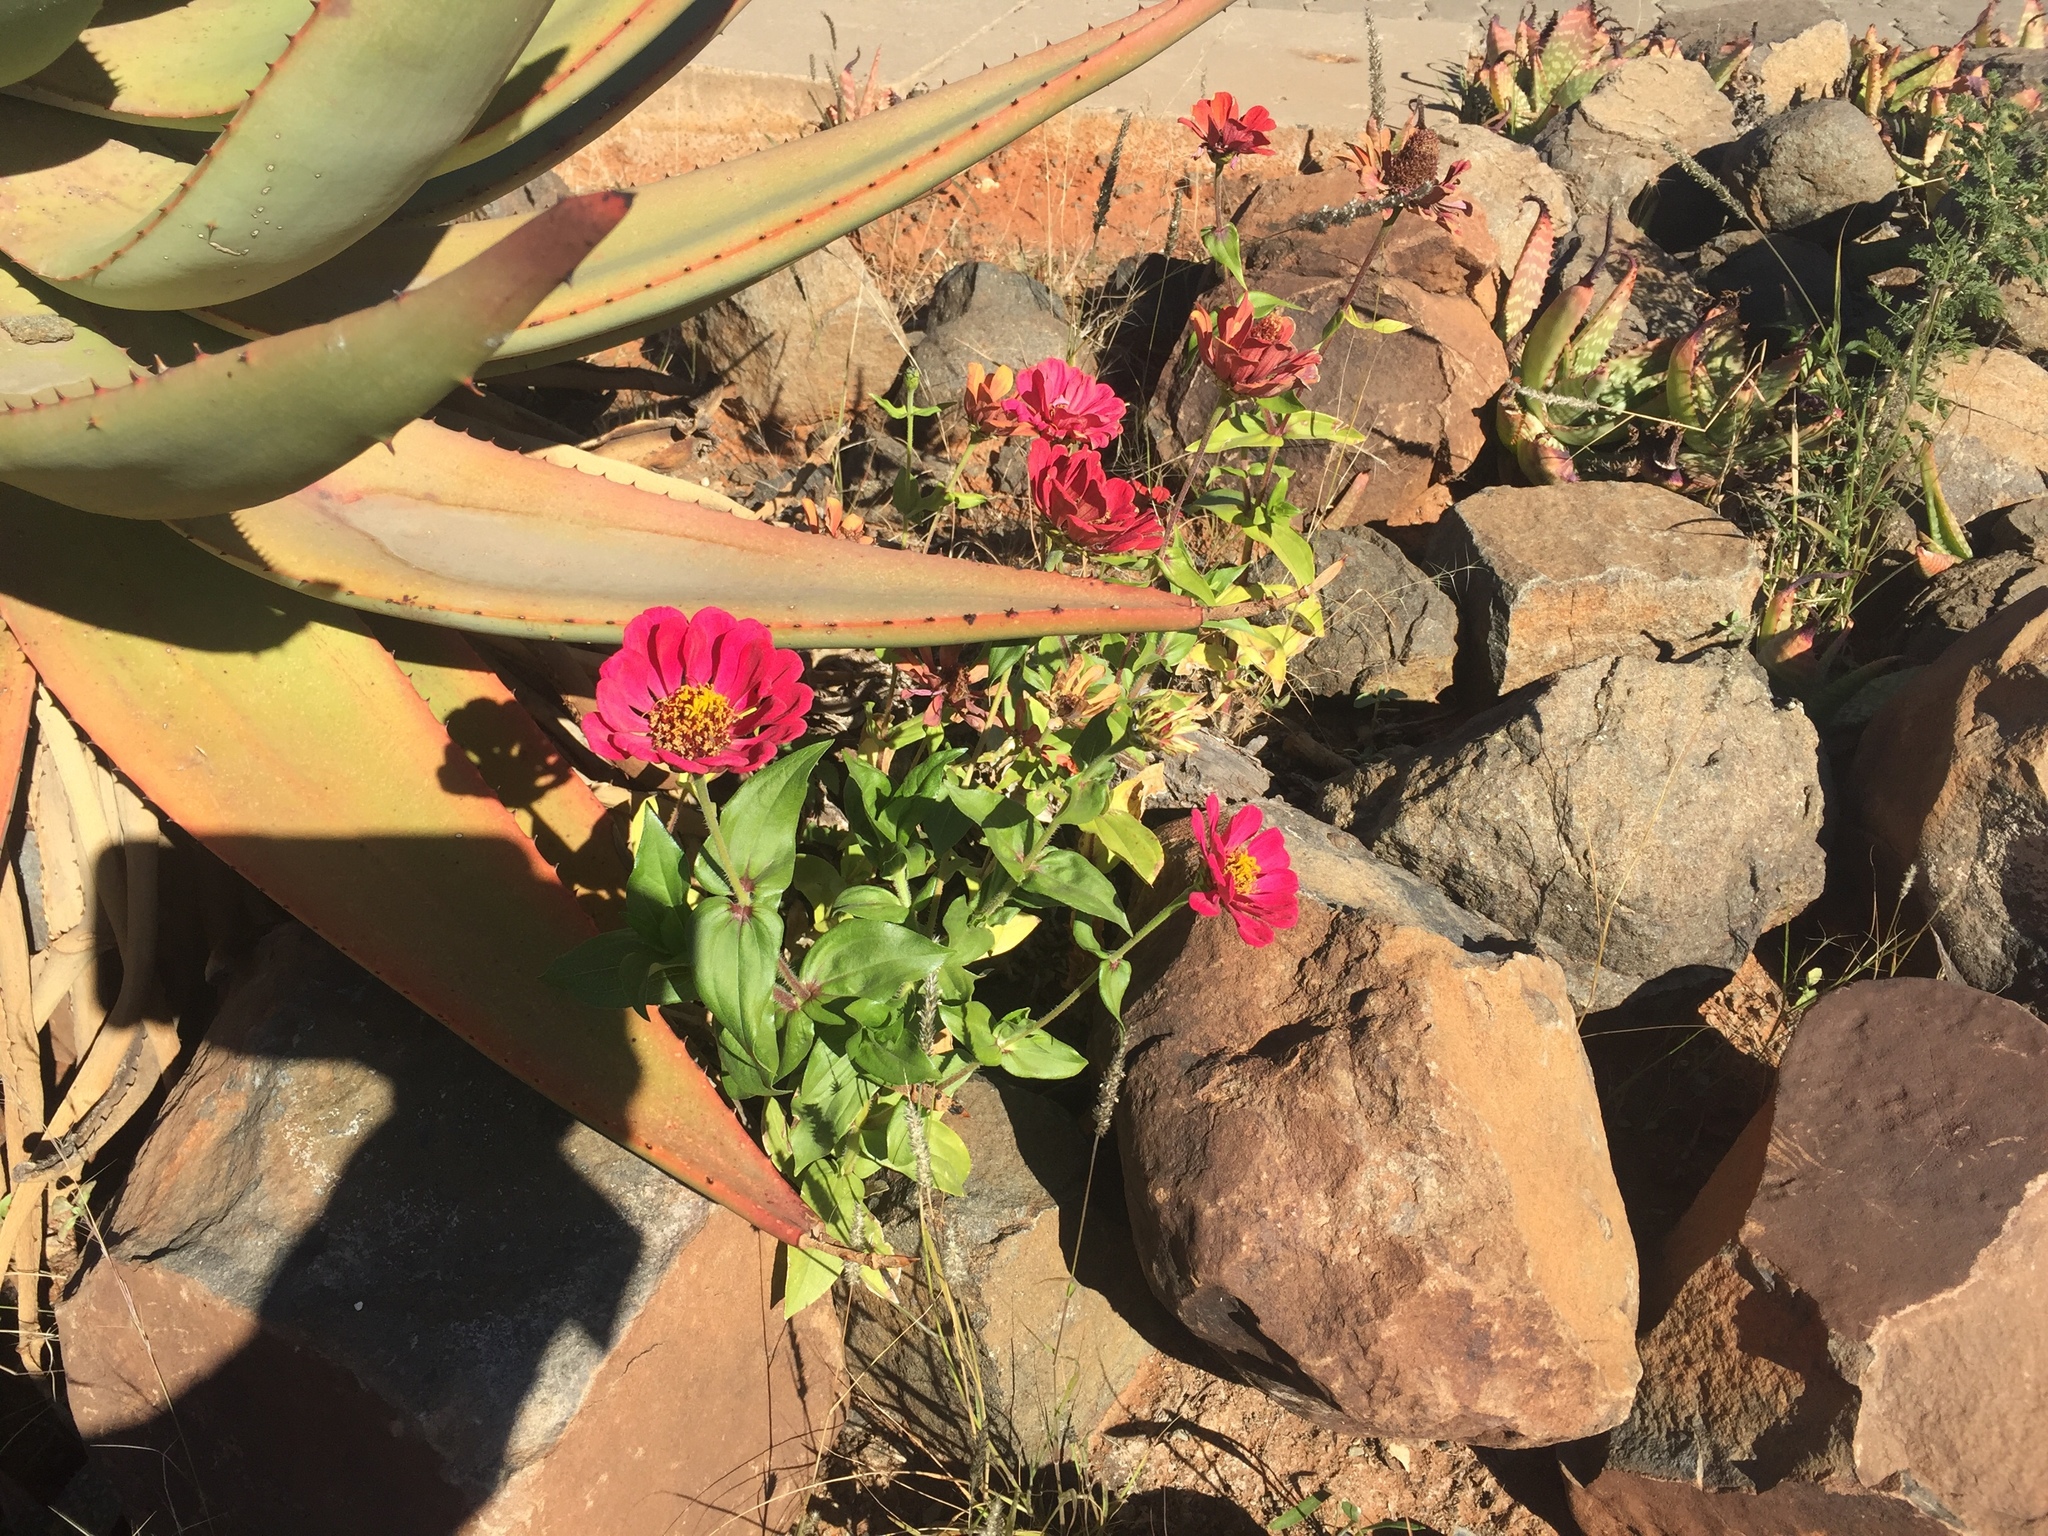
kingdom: Plantae
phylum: Tracheophyta
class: Magnoliopsida
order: Asterales
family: Asteraceae
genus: Zinnia
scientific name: Zinnia elegans
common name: Youth-and-age
